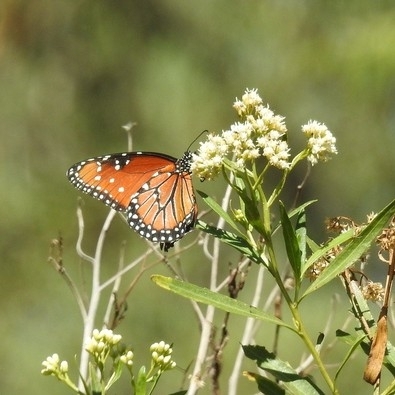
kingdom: Animalia
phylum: Arthropoda
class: Insecta
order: Lepidoptera
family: Nymphalidae
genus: Danaus
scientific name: Danaus gilippus
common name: Queen
